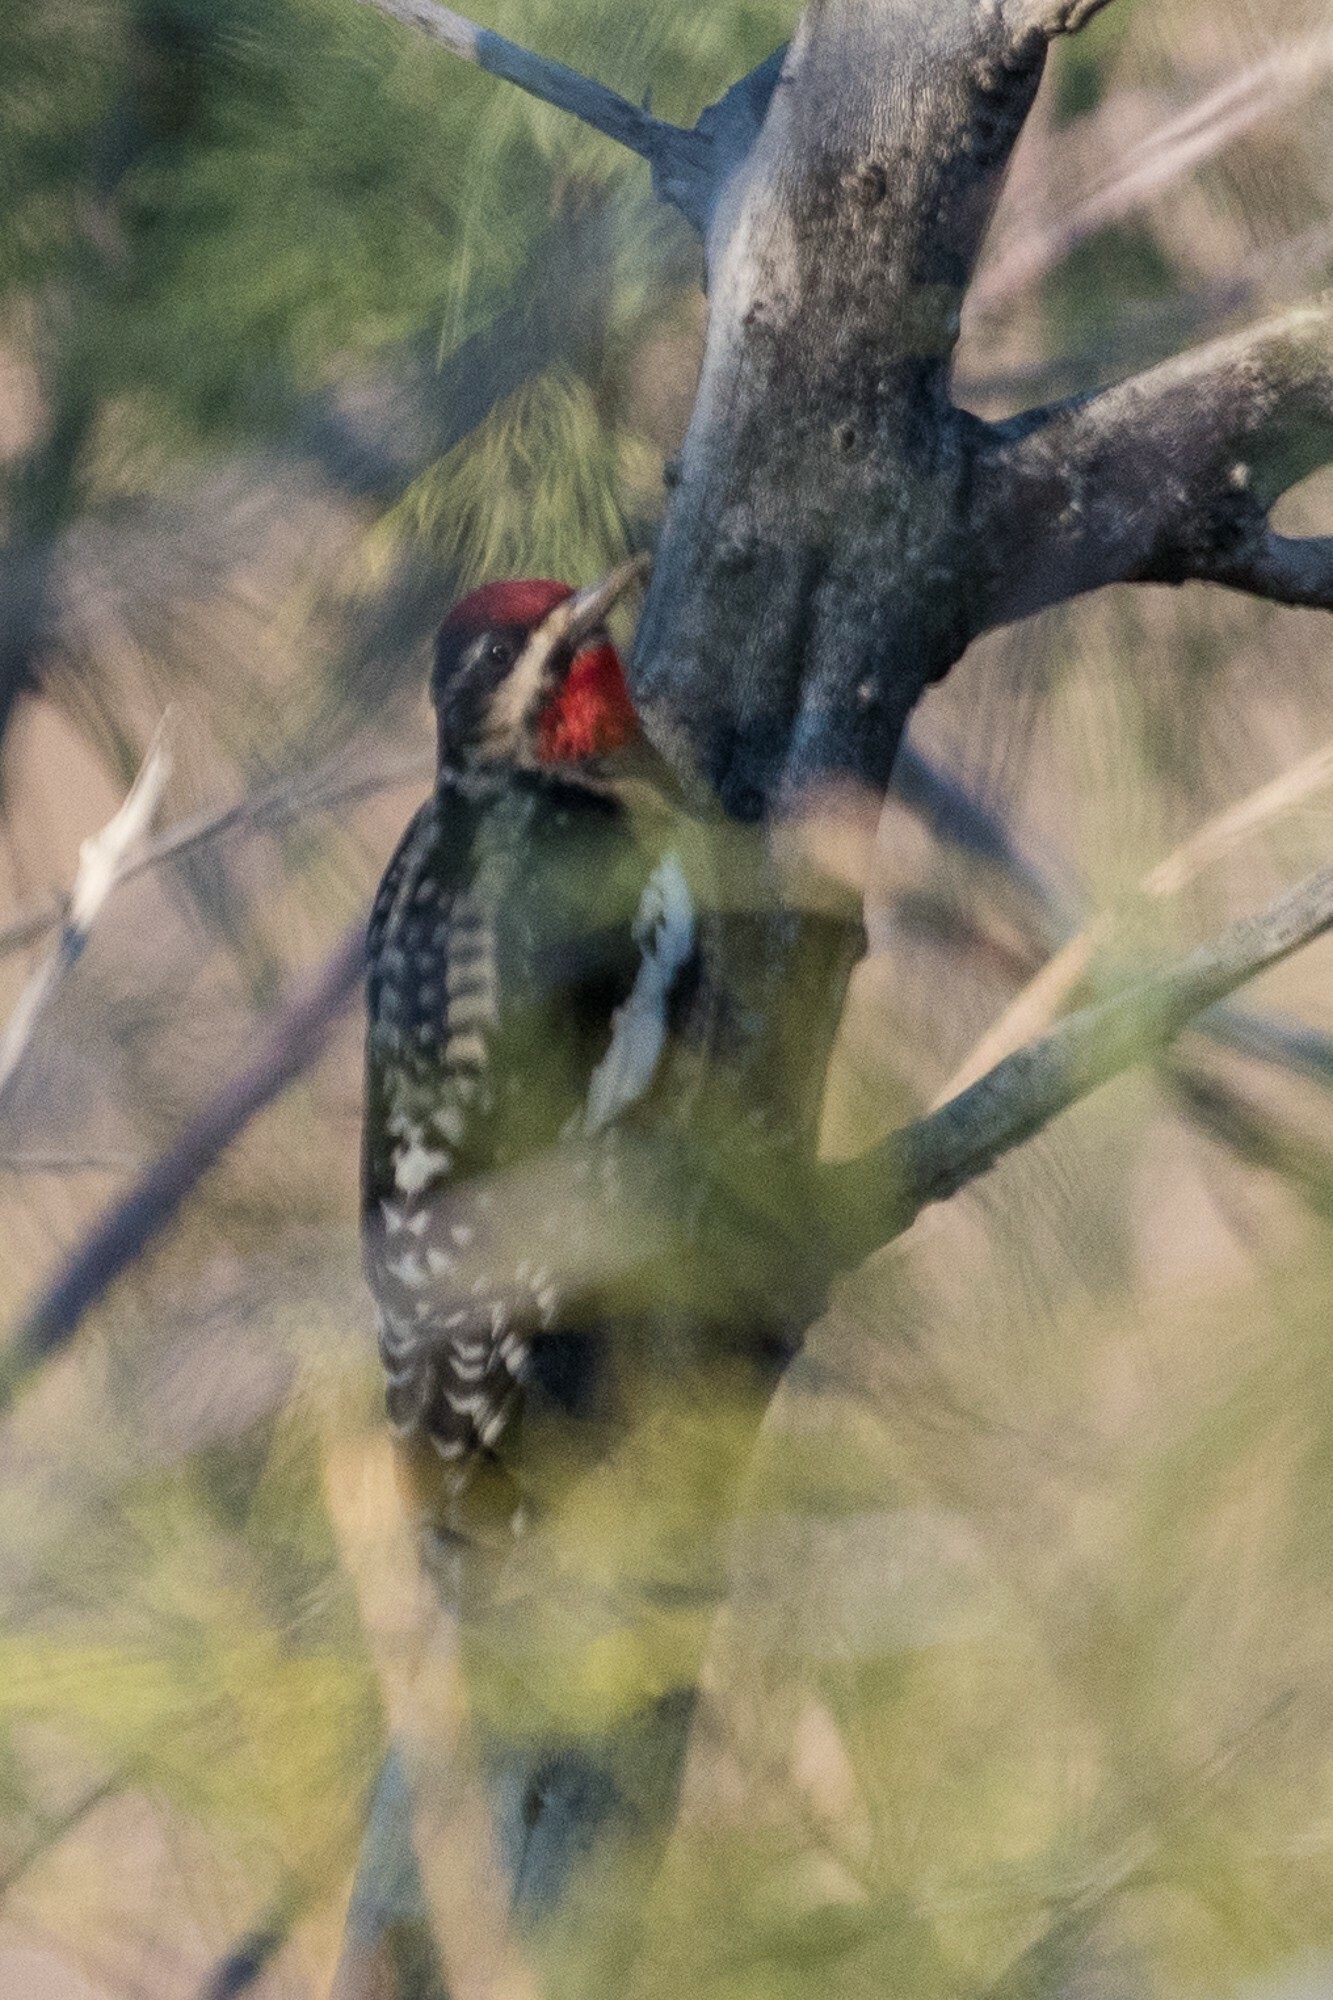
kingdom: Animalia
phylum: Chordata
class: Aves
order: Piciformes
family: Picidae
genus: Sphyrapicus
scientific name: Sphyrapicus nuchalis
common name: Red-naped sapsucker
